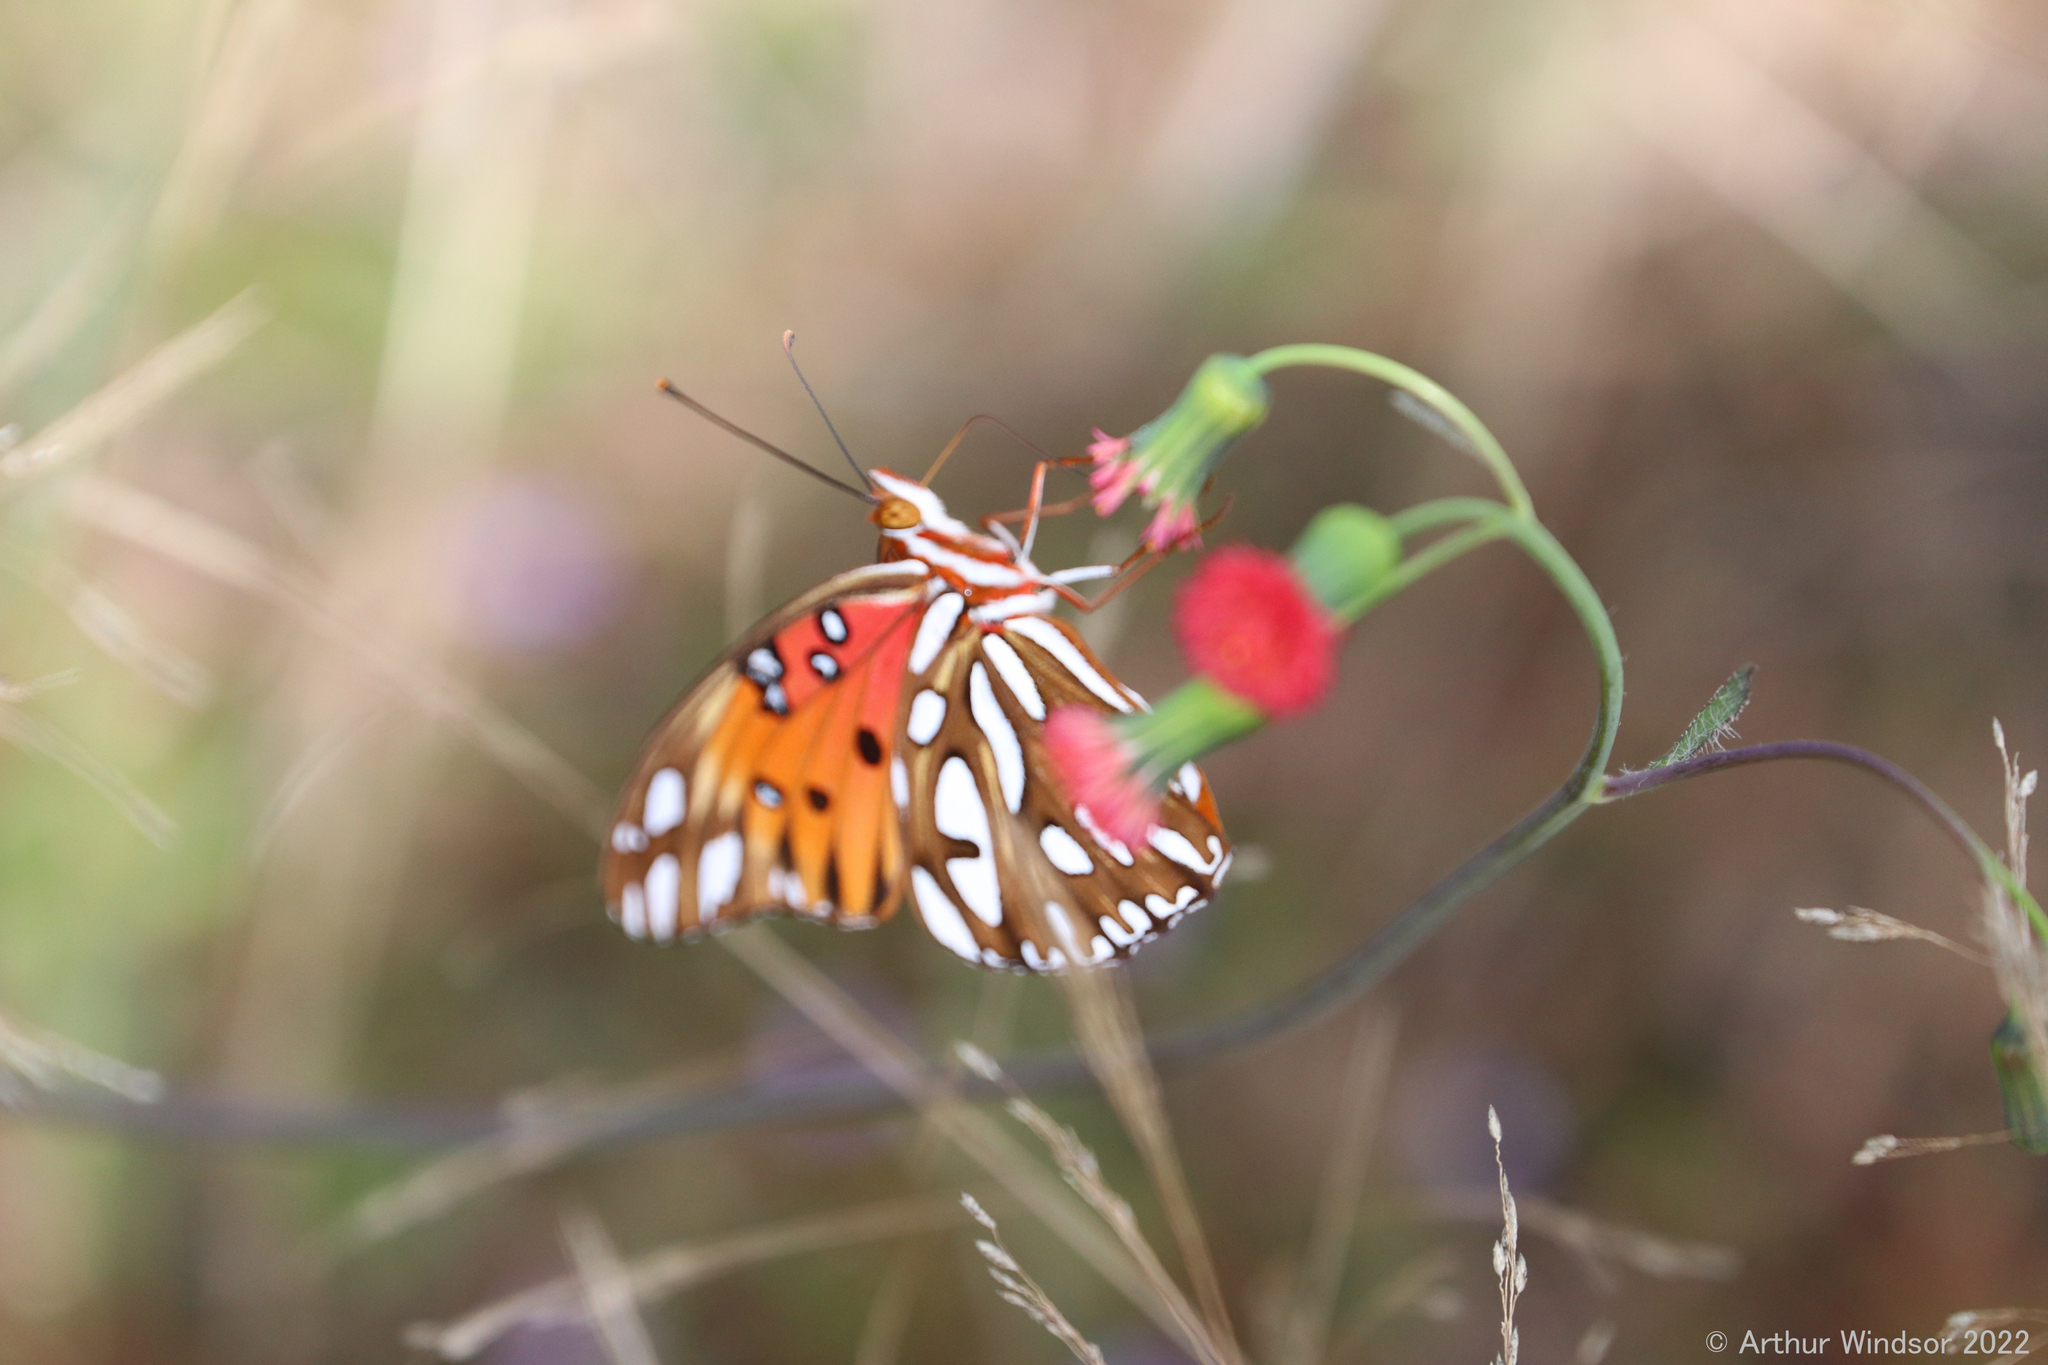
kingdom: Animalia
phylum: Arthropoda
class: Insecta
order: Lepidoptera
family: Nymphalidae
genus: Dione
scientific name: Dione vanillae
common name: Gulf fritillary
